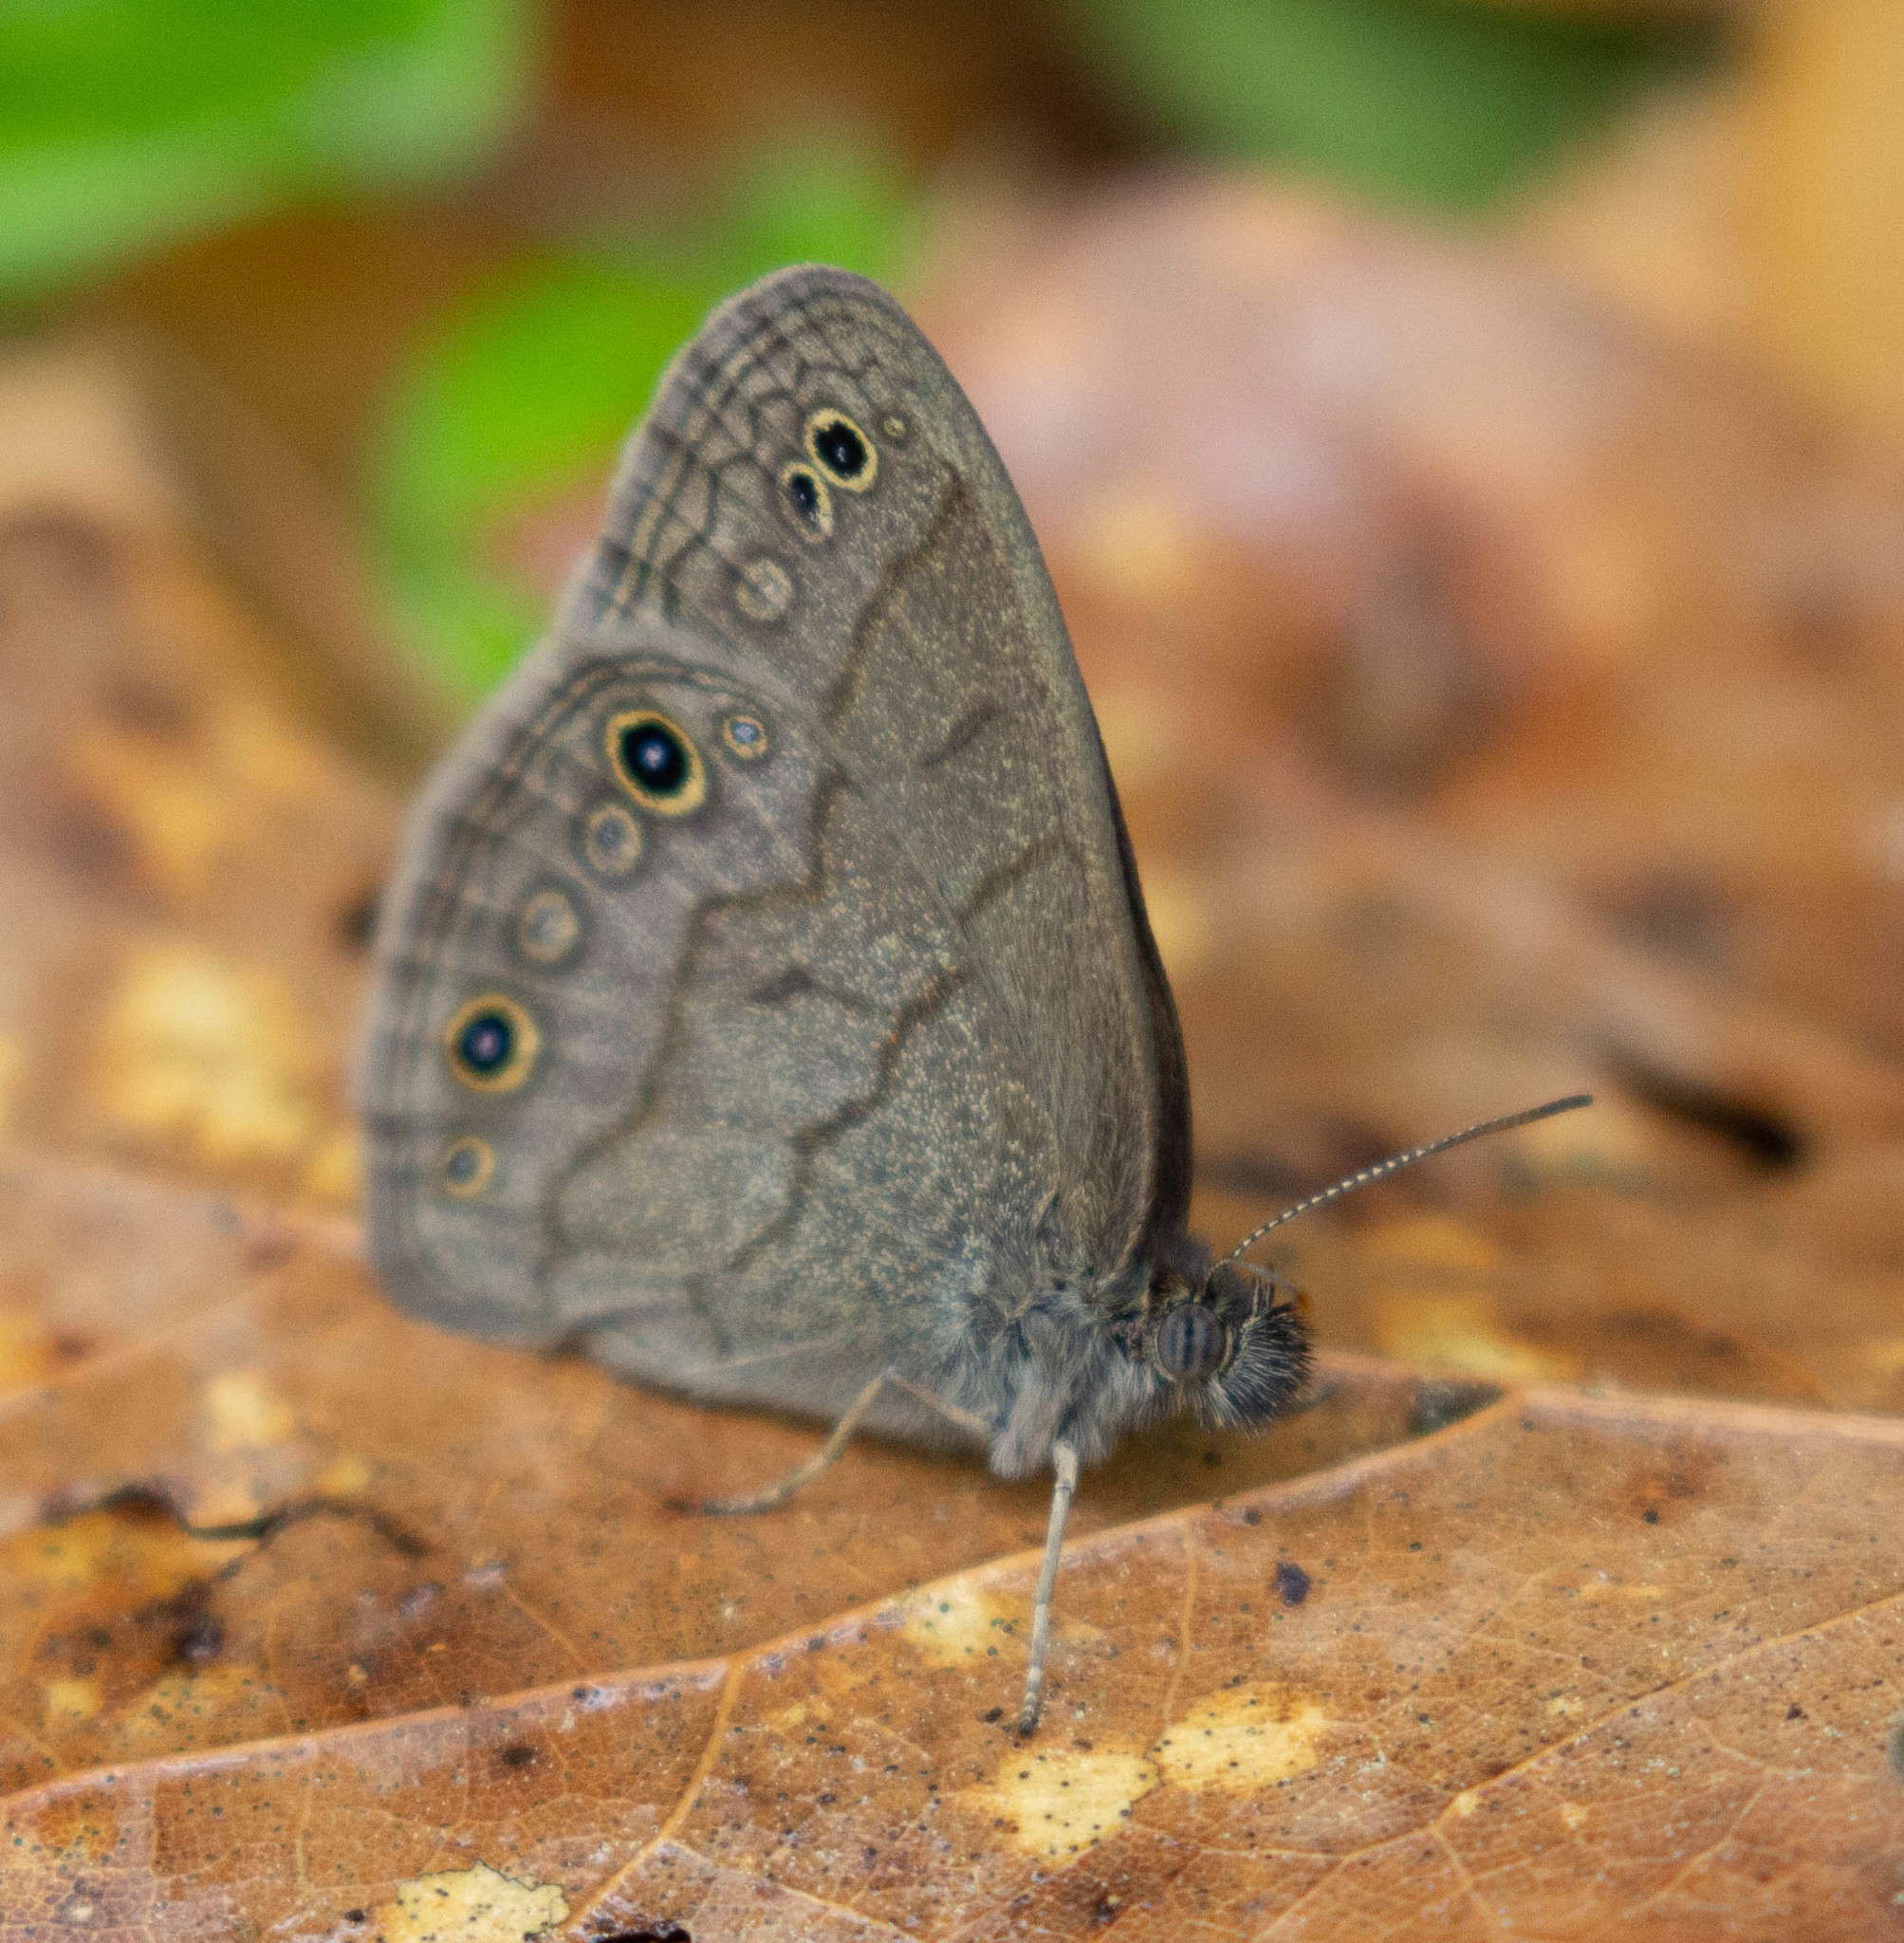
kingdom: Animalia
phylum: Arthropoda
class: Insecta
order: Lepidoptera
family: Nymphalidae
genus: Hermeuptychia
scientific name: Hermeuptychia hermes
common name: Hermes satyr
